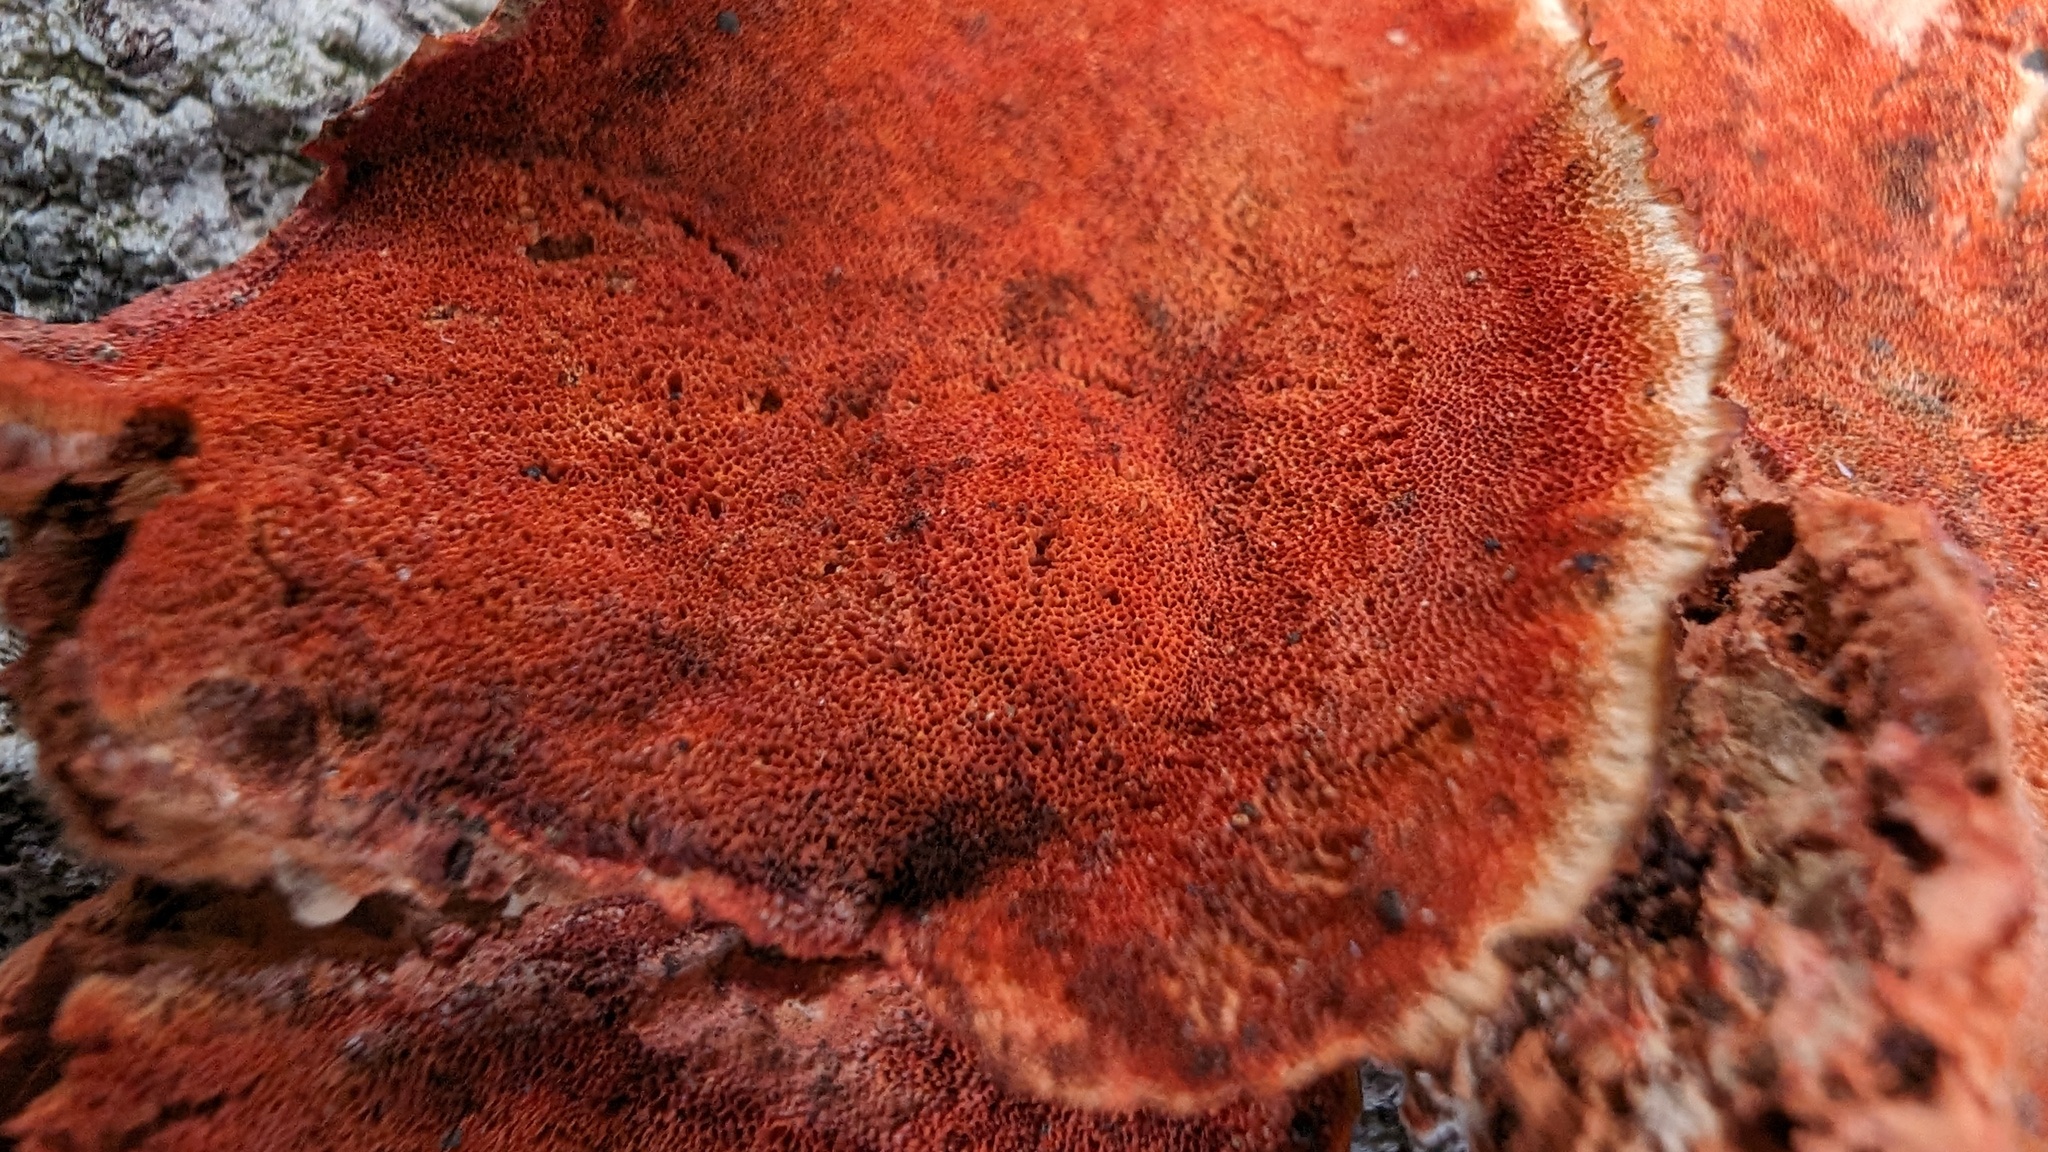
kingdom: Fungi
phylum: Basidiomycota
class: Agaricomycetes
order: Polyporales
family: Polyporaceae
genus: Trametes
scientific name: Trametes coccinea
